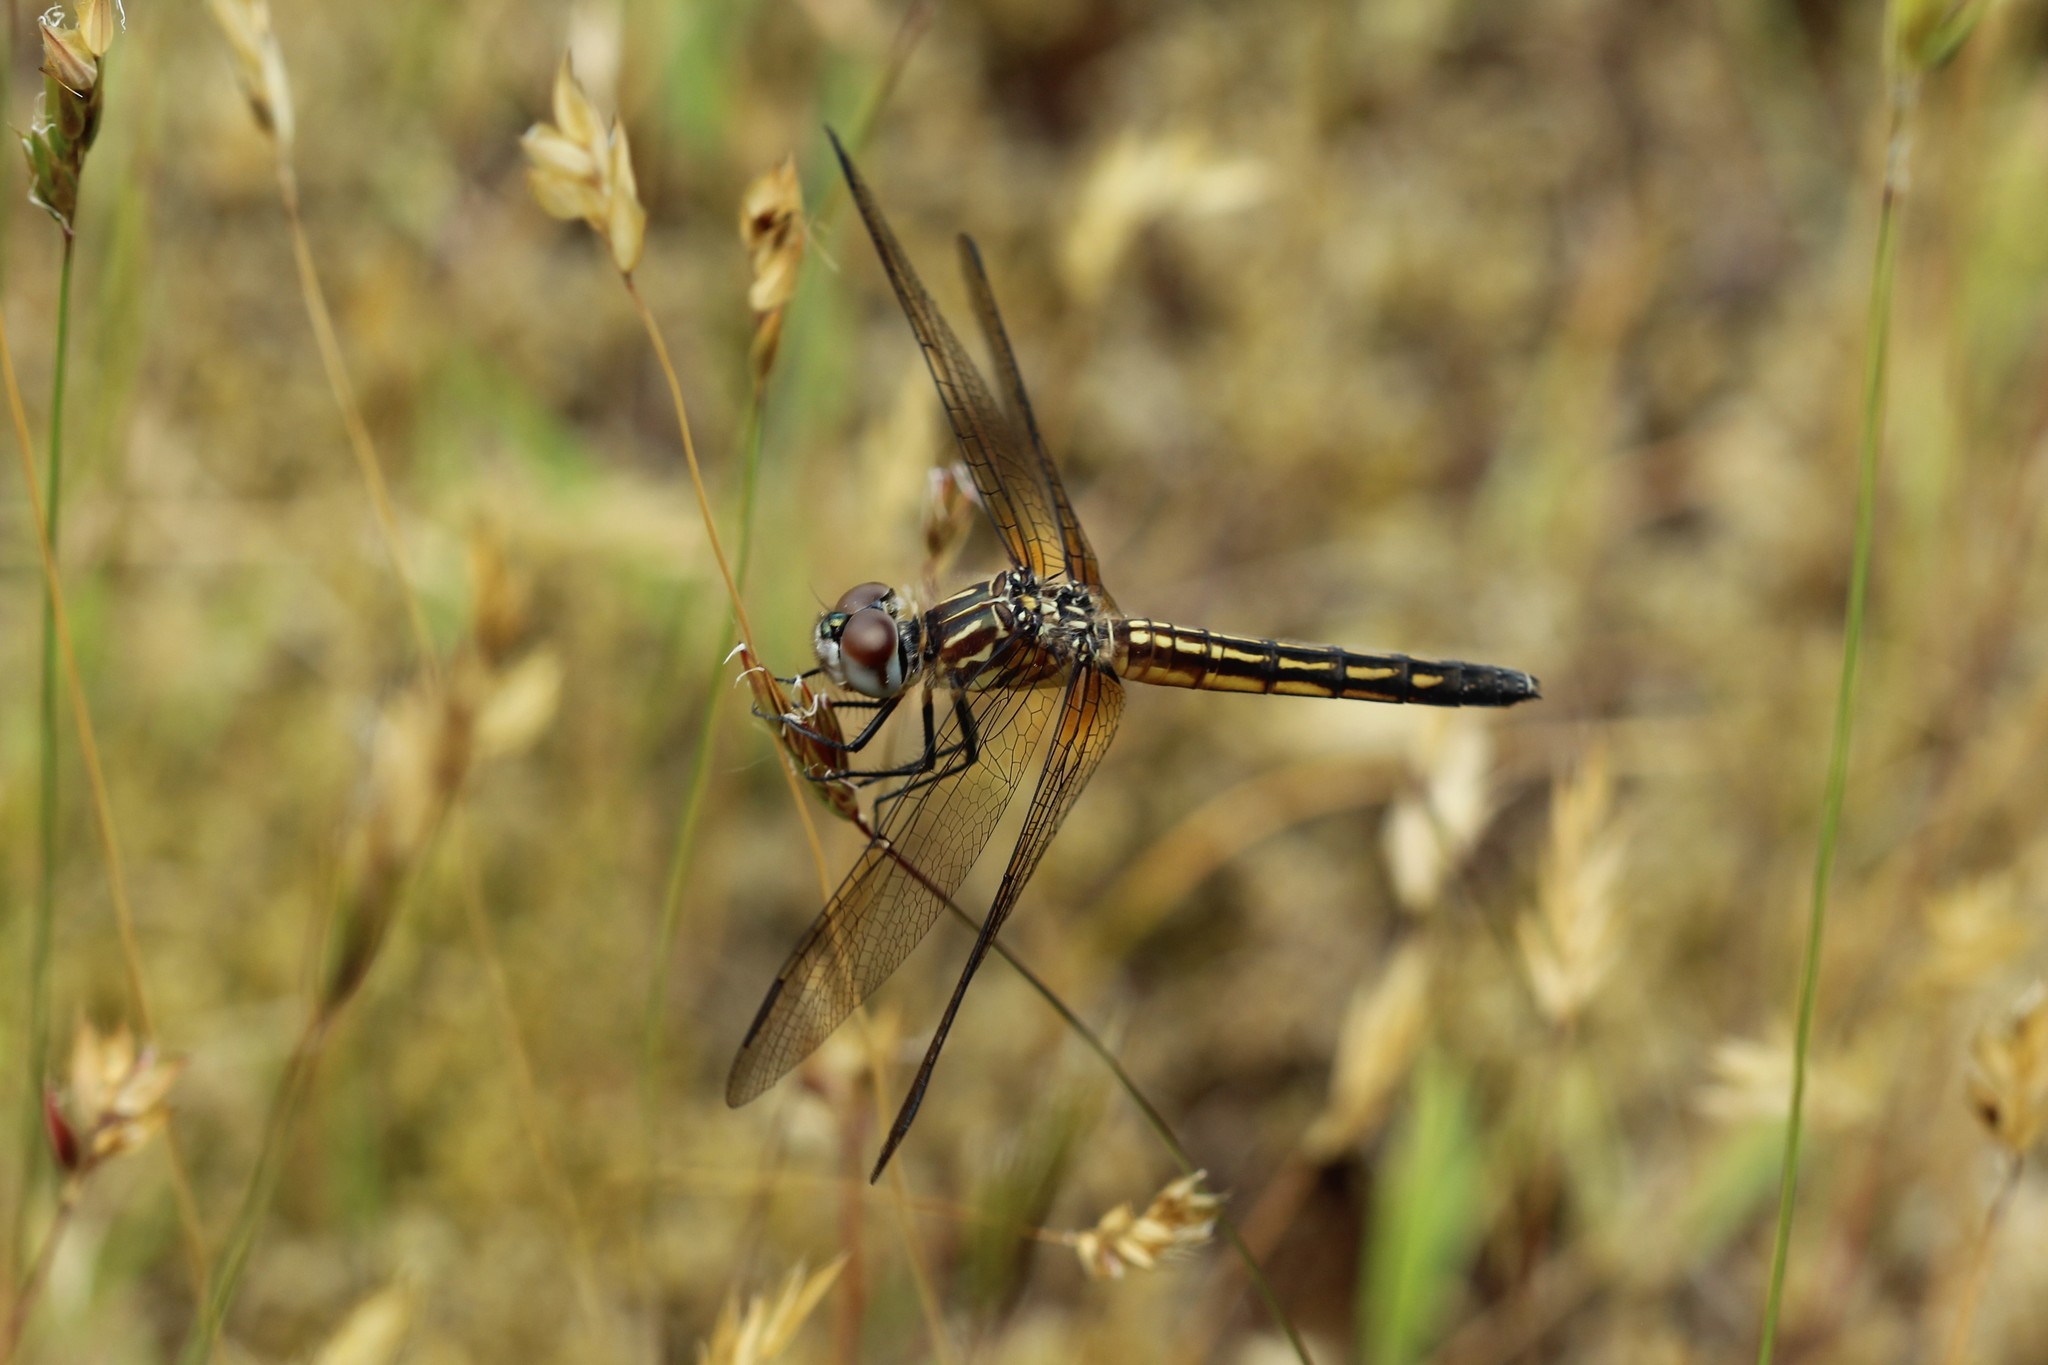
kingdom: Animalia
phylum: Arthropoda
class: Insecta
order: Odonata
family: Libellulidae
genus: Pachydiplax
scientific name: Pachydiplax longipennis
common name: Blue dasher
